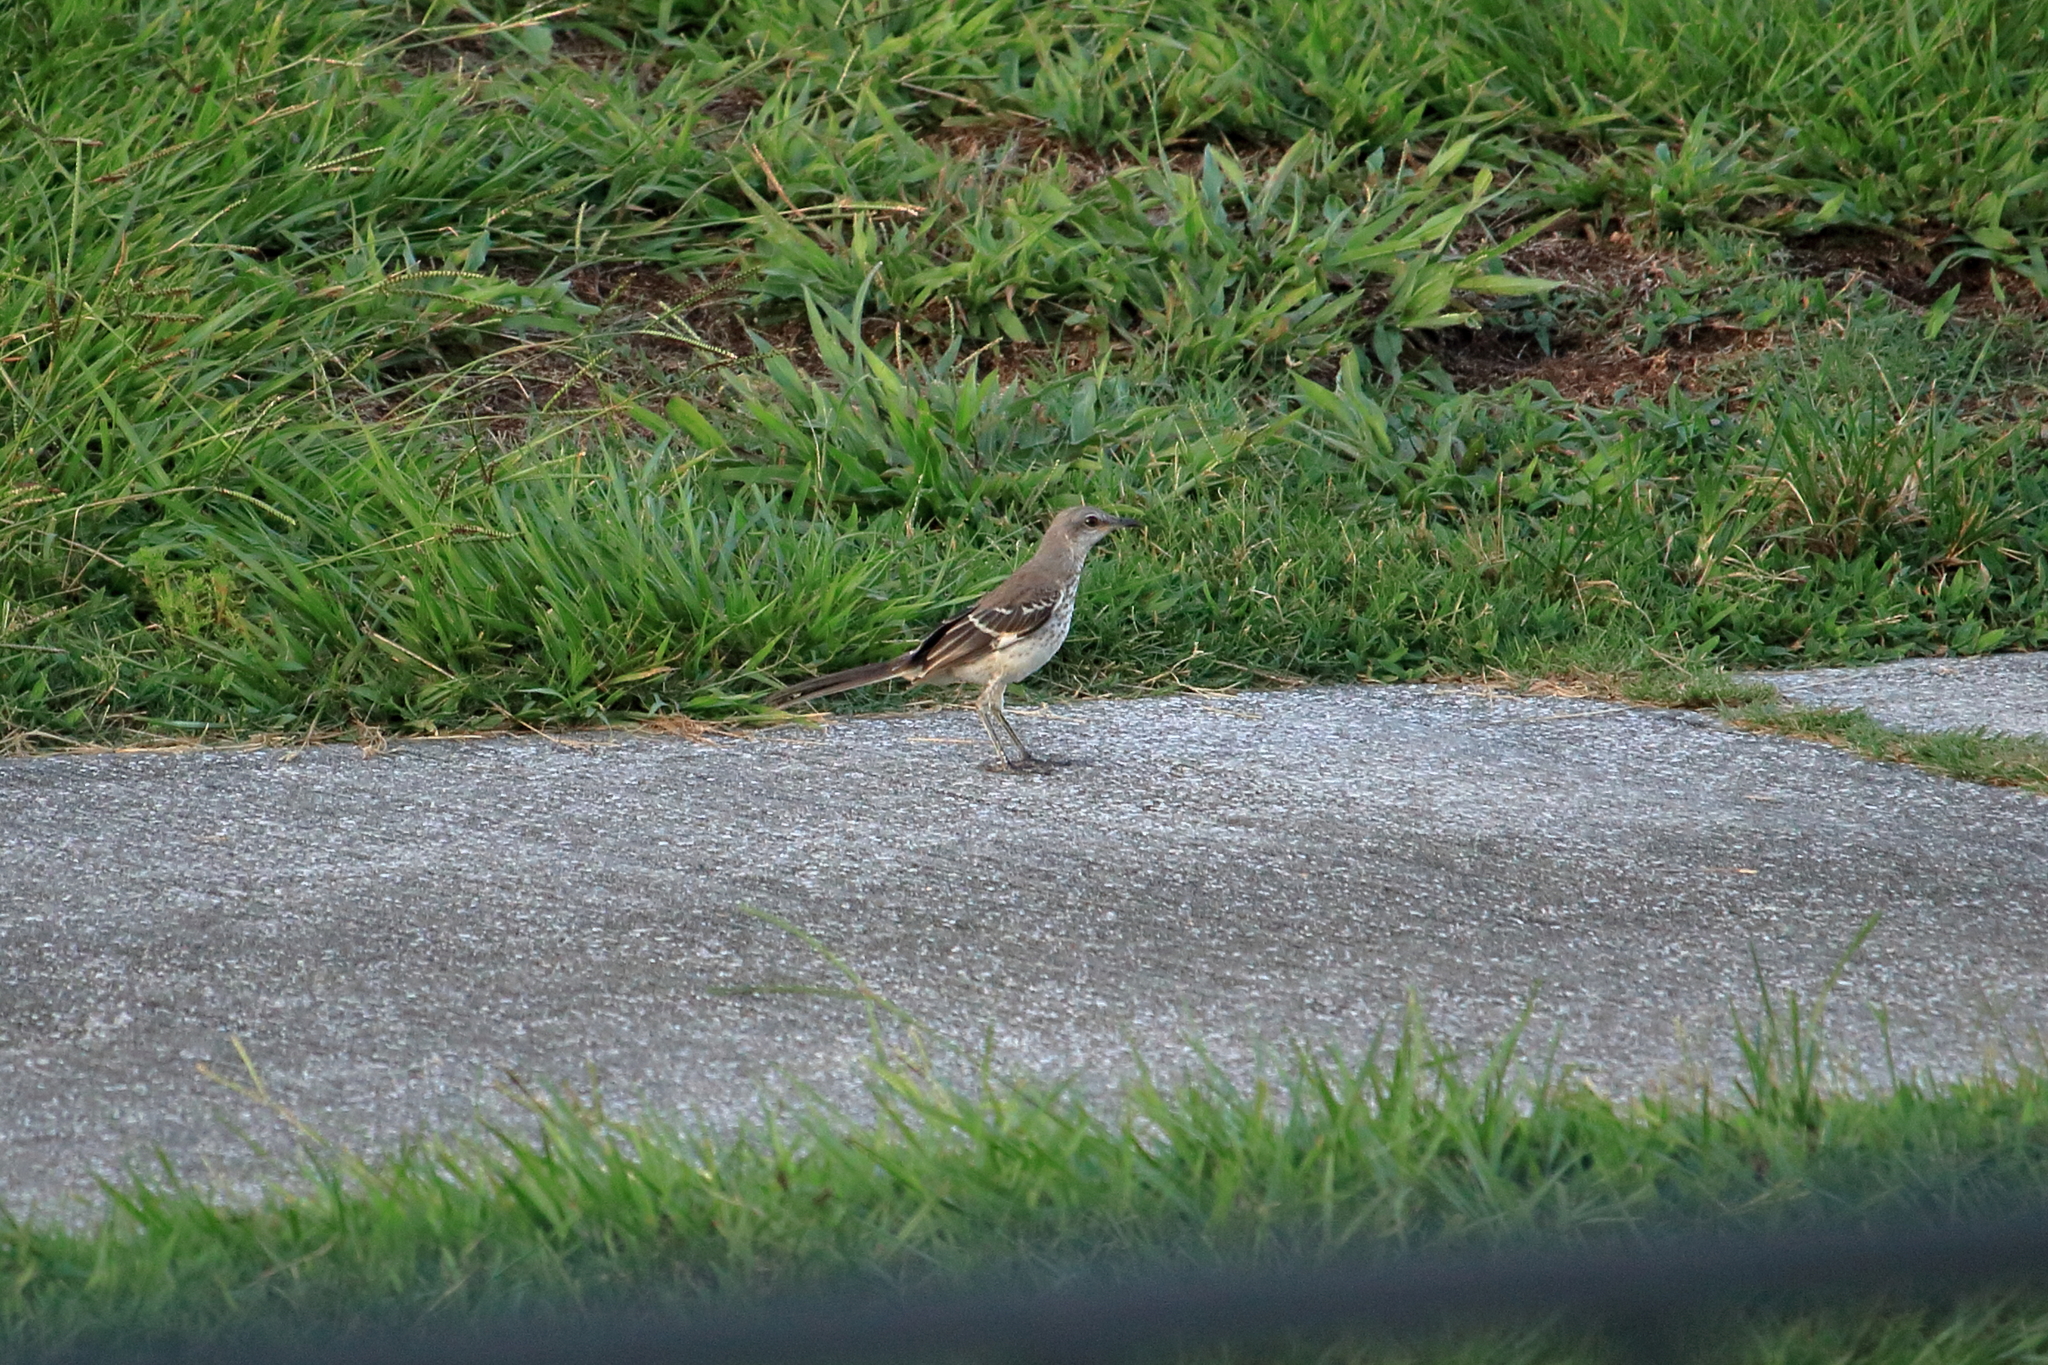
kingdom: Animalia
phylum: Chordata
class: Aves
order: Passeriformes
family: Mimidae
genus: Mimus
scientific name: Mimus polyglottos
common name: Northern mockingbird
